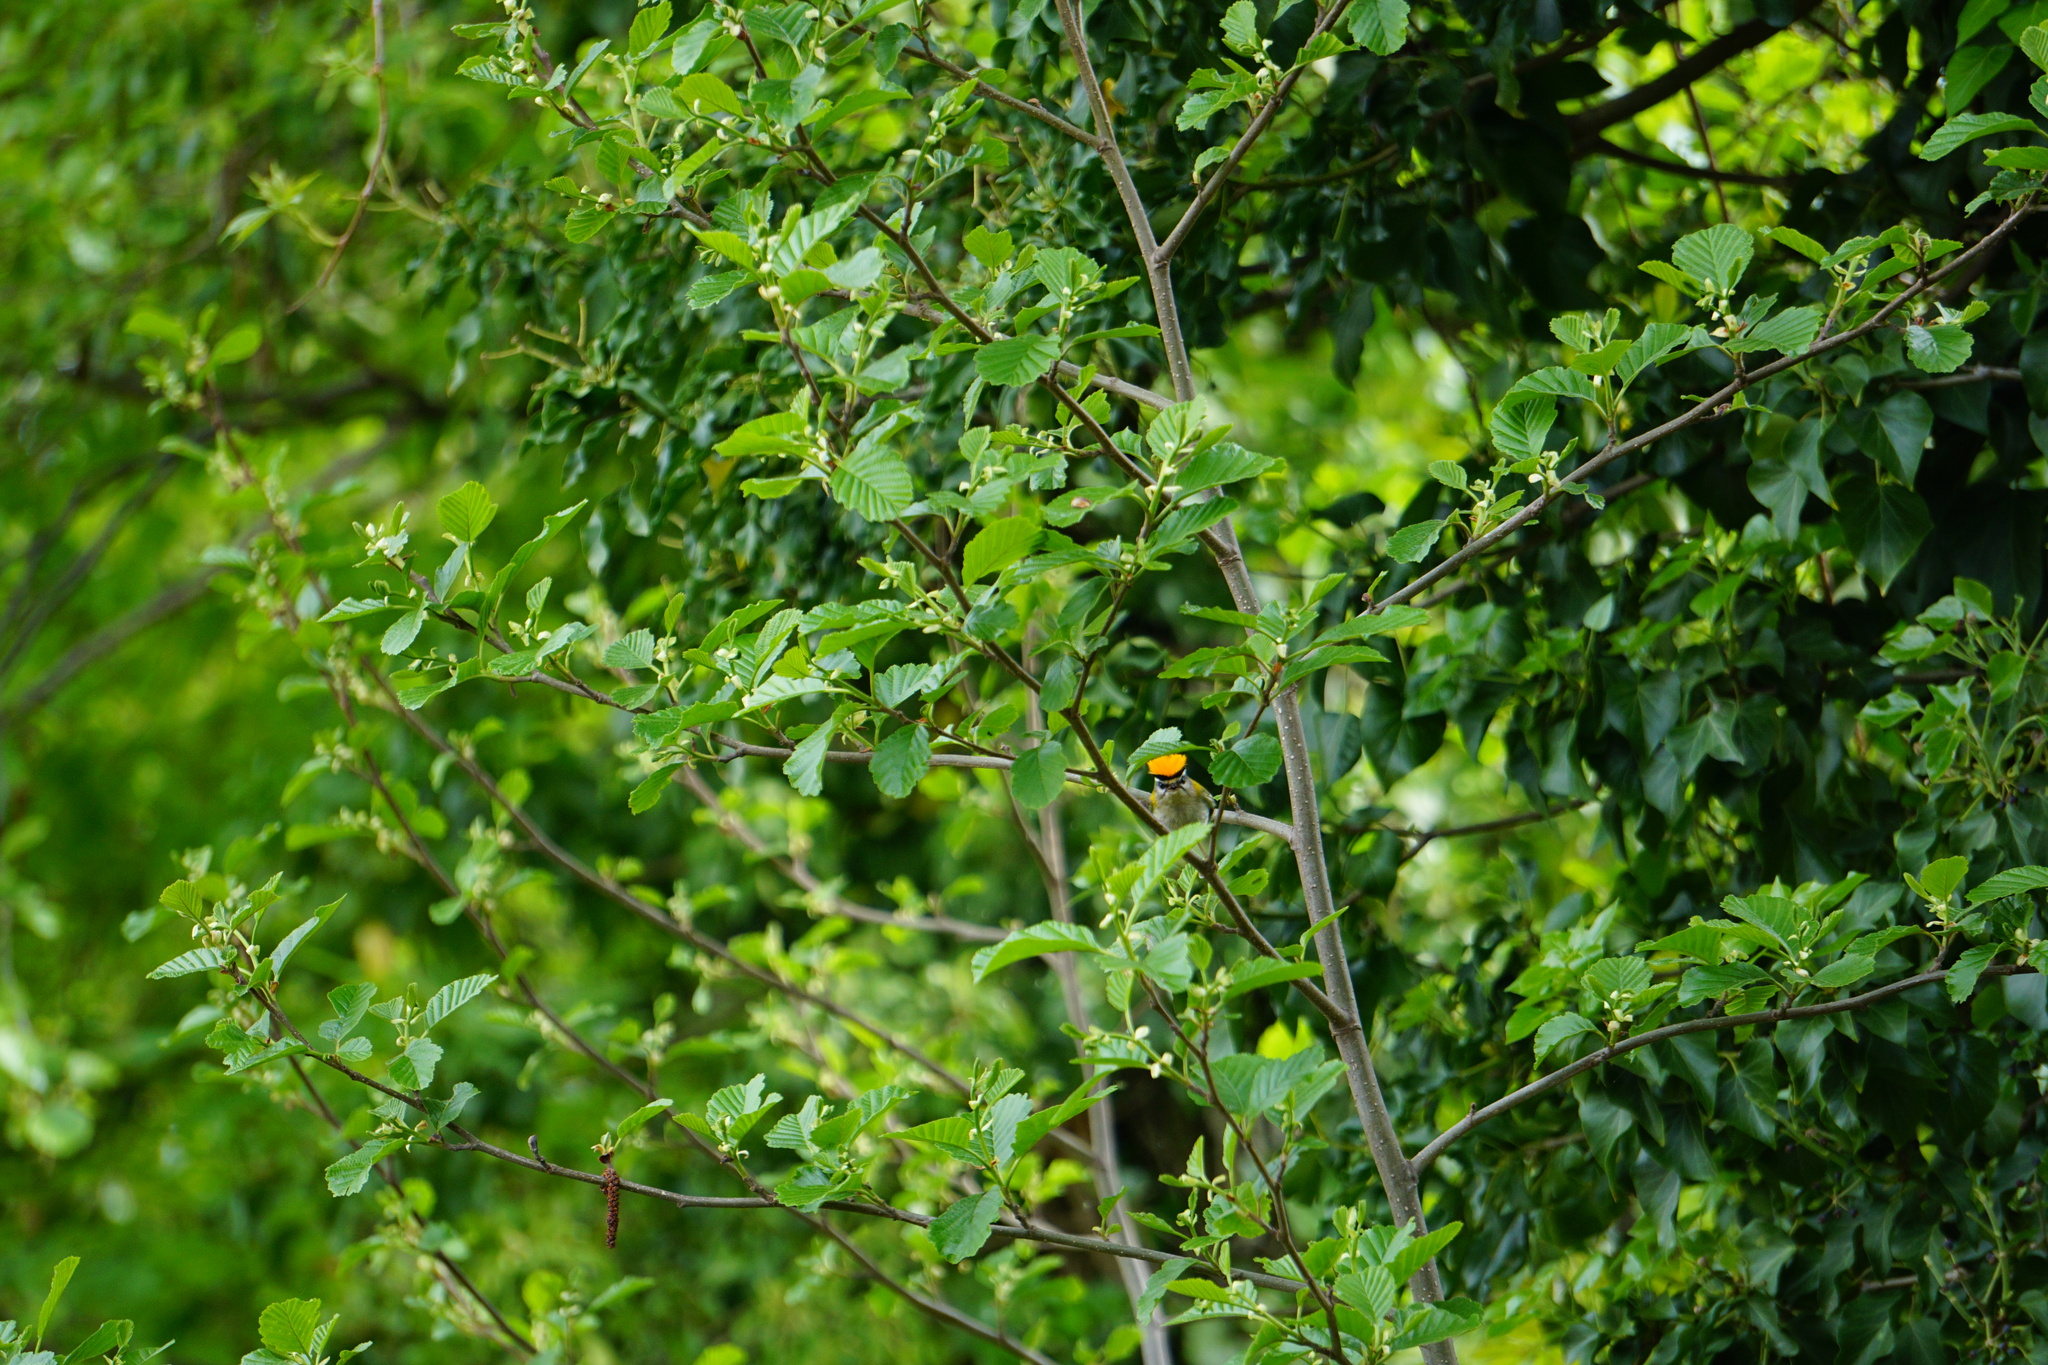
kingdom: Animalia
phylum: Chordata
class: Aves
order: Passeriformes
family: Regulidae
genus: Regulus
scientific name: Regulus ignicapilla
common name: Firecrest
